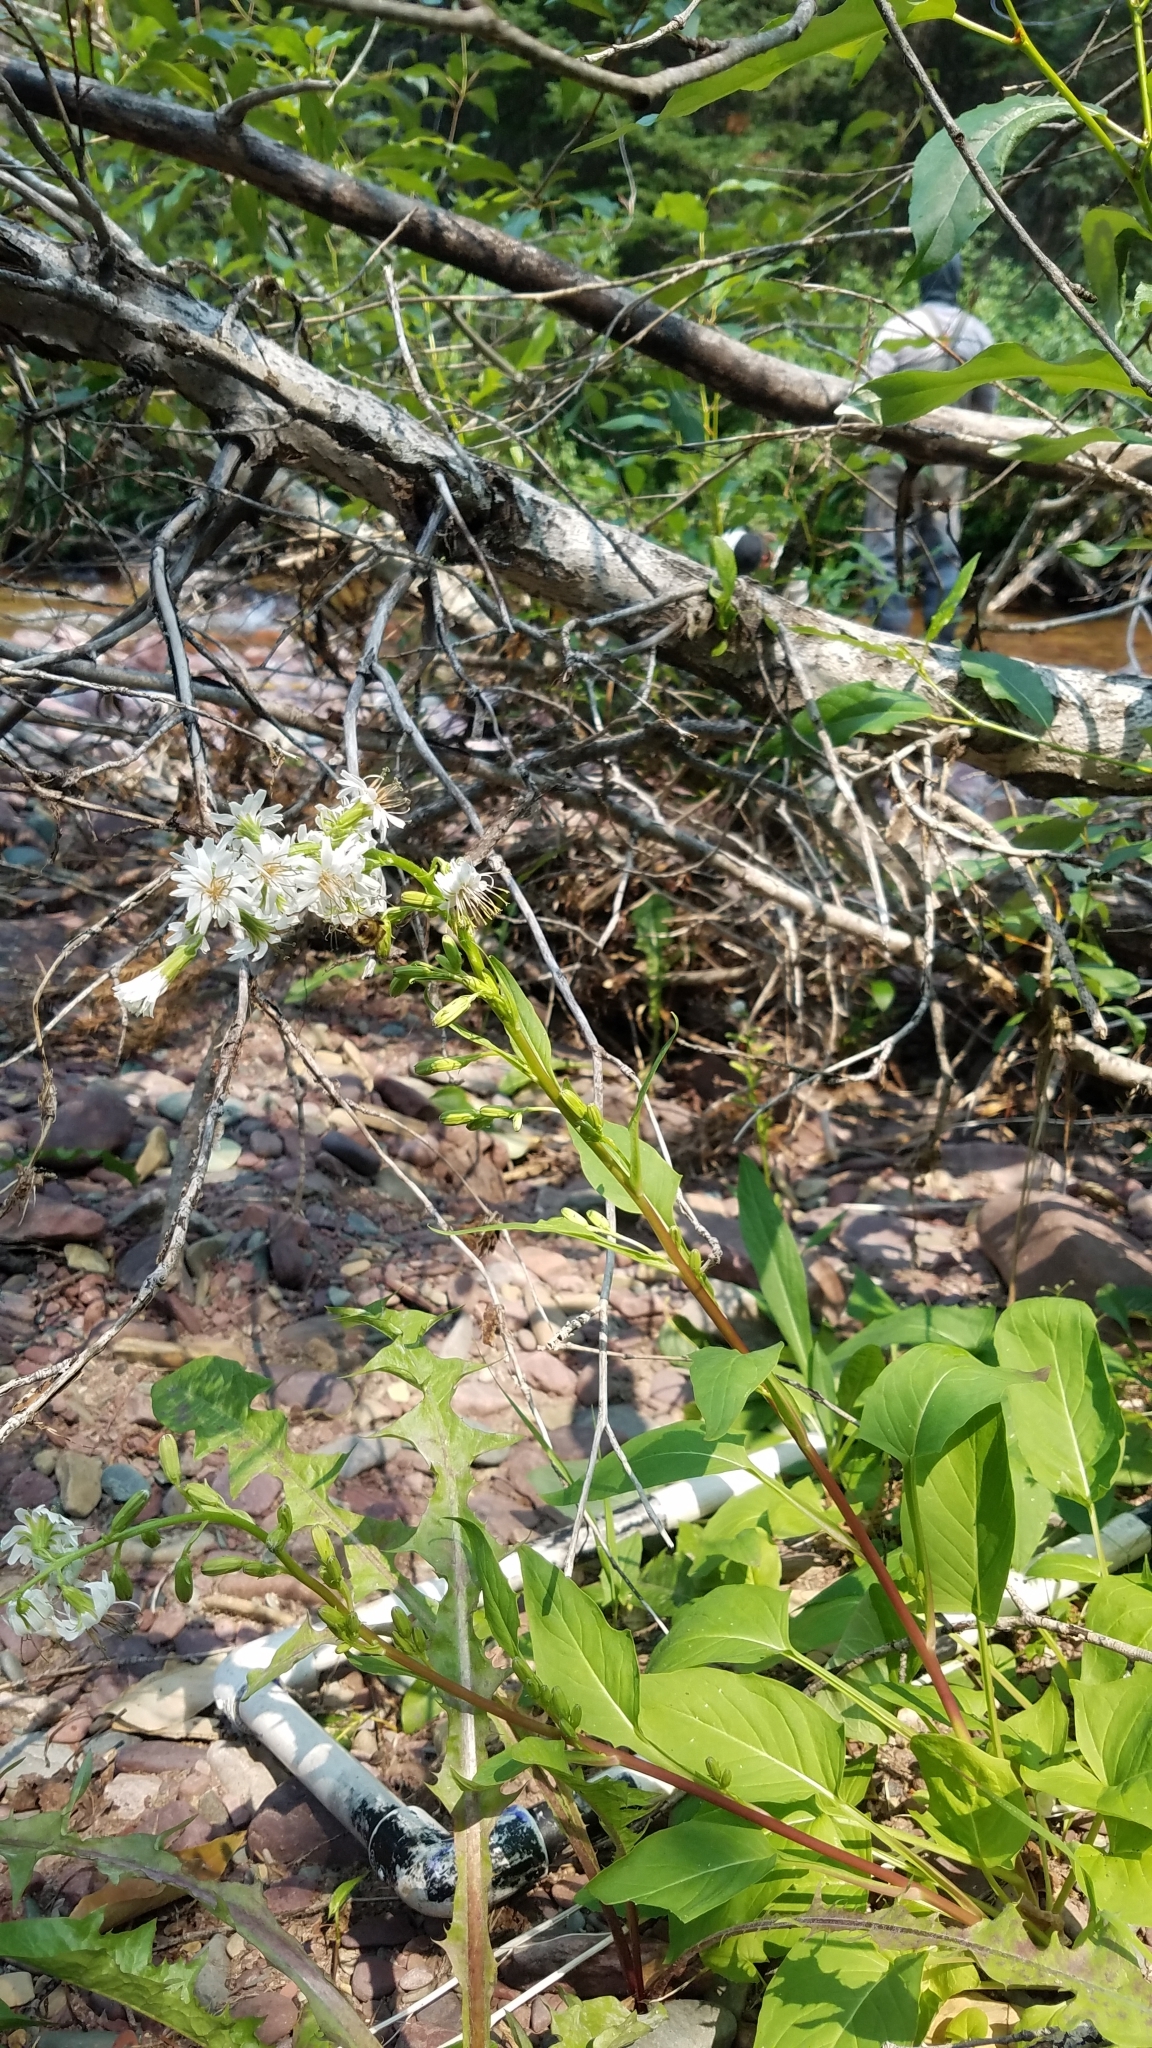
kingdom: Plantae
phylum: Tracheophyta
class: Magnoliopsida
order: Asterales
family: Asteraceae
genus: Nabalus
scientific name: Nabalus sagittatus
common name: Arrowleaf snakeroot
